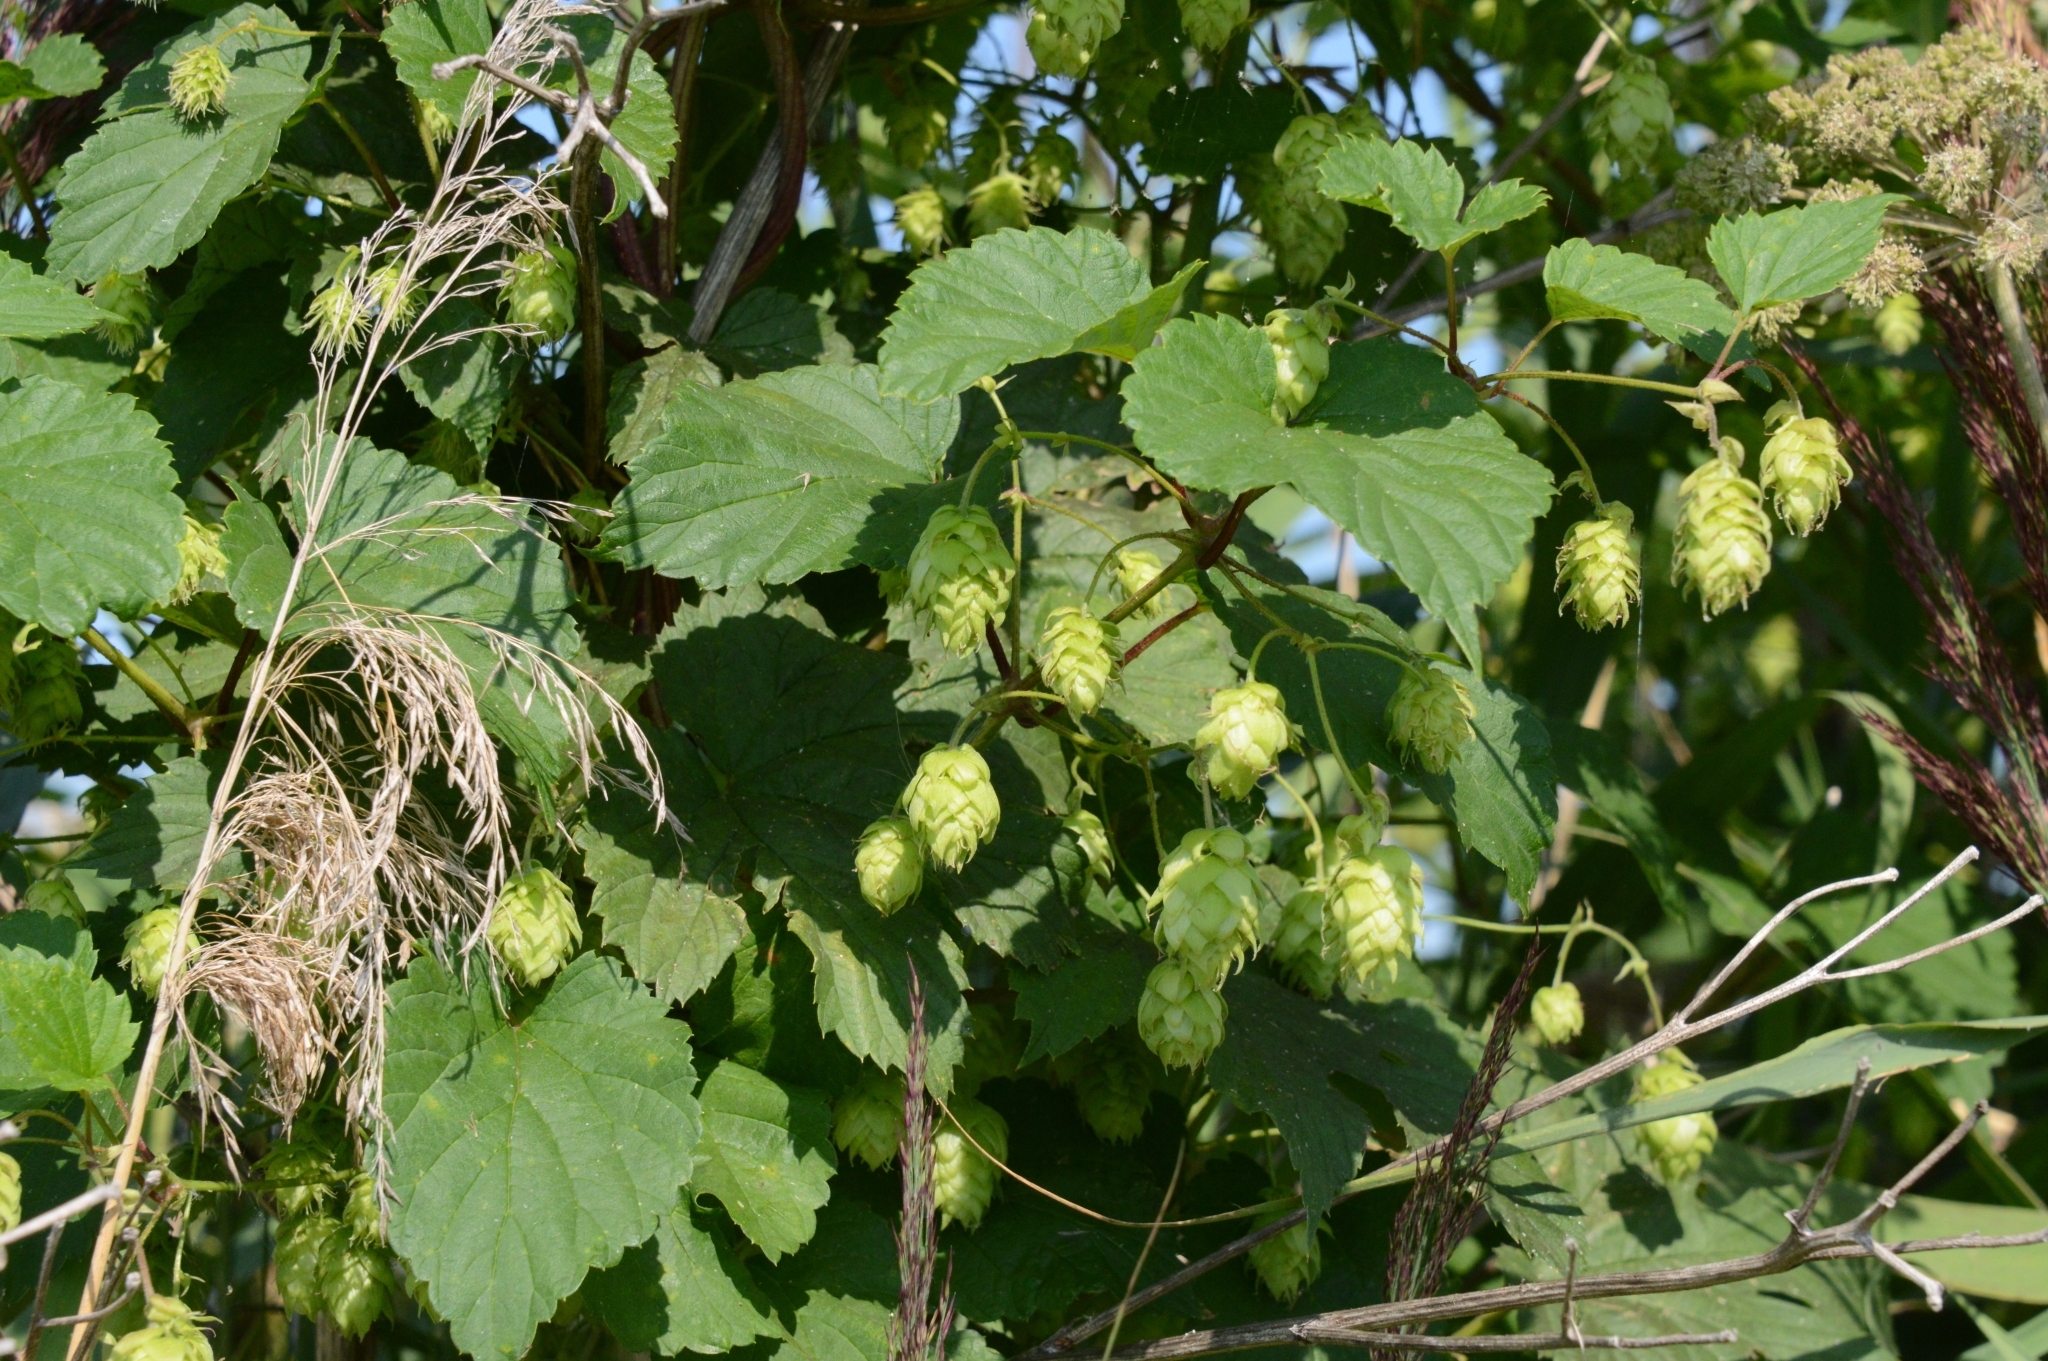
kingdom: Plantae
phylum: Tracheophyta
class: Magnoliopsida
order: Rosales
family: Cannabaceae
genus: Humulus
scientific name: Humulus lupulus
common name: Hop
